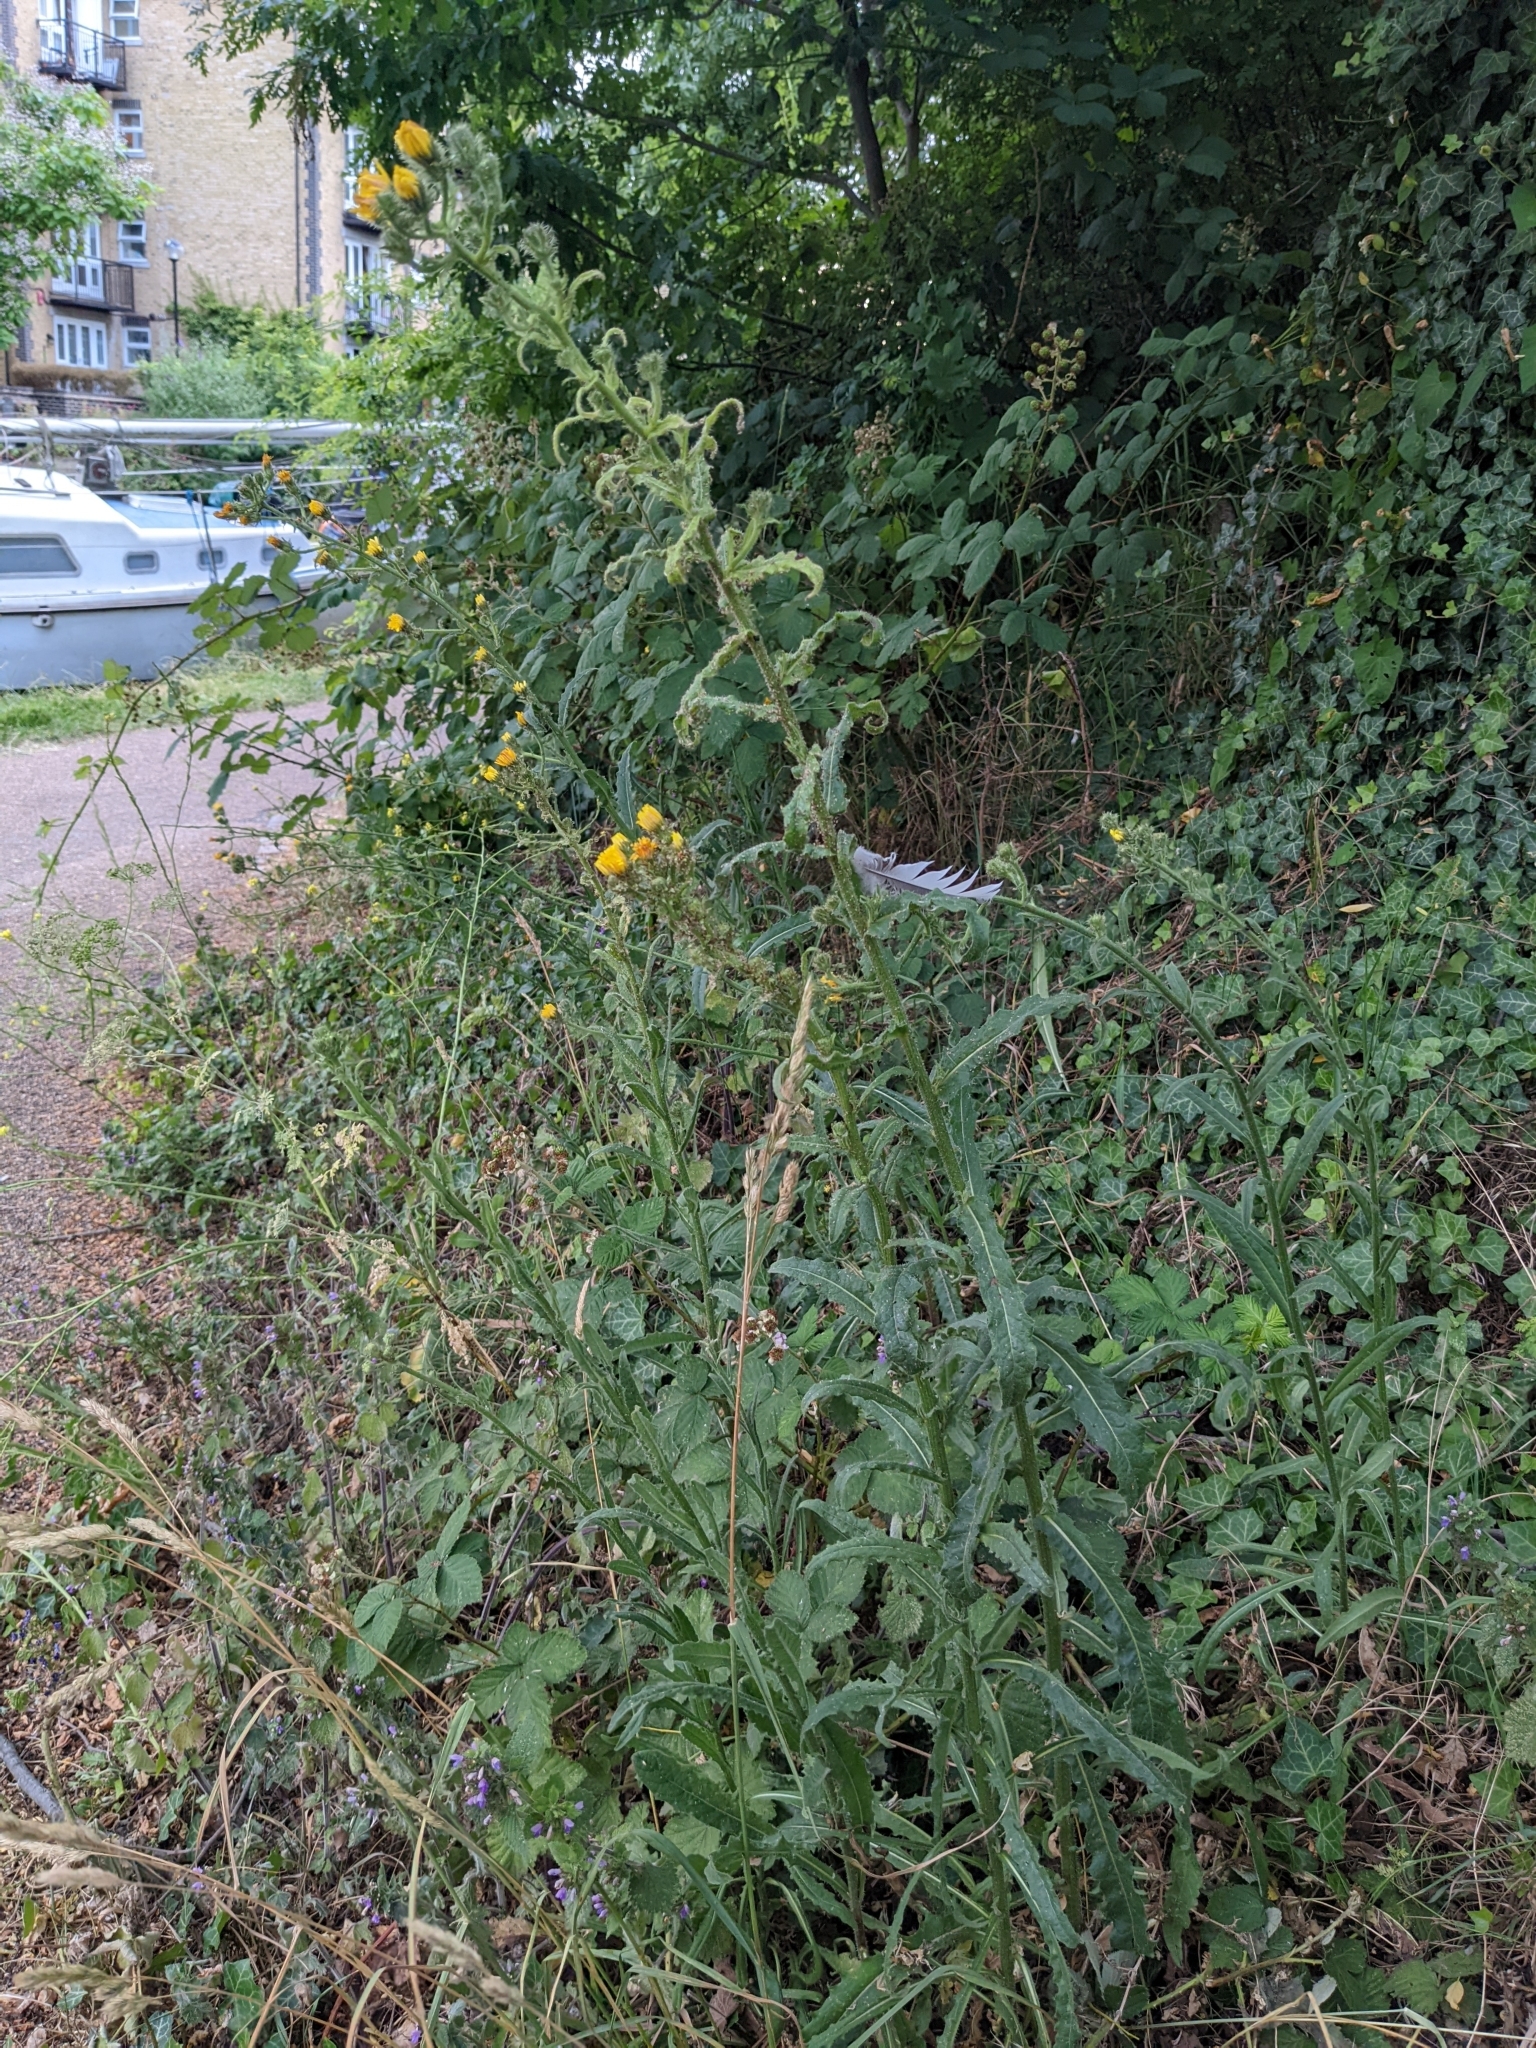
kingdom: Plantae
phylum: Tracheophyta
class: Magnoliopsida
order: Asterales
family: Asteraceae
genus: Picris
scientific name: Picris hieracioides
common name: Hawkweed oxtongue
